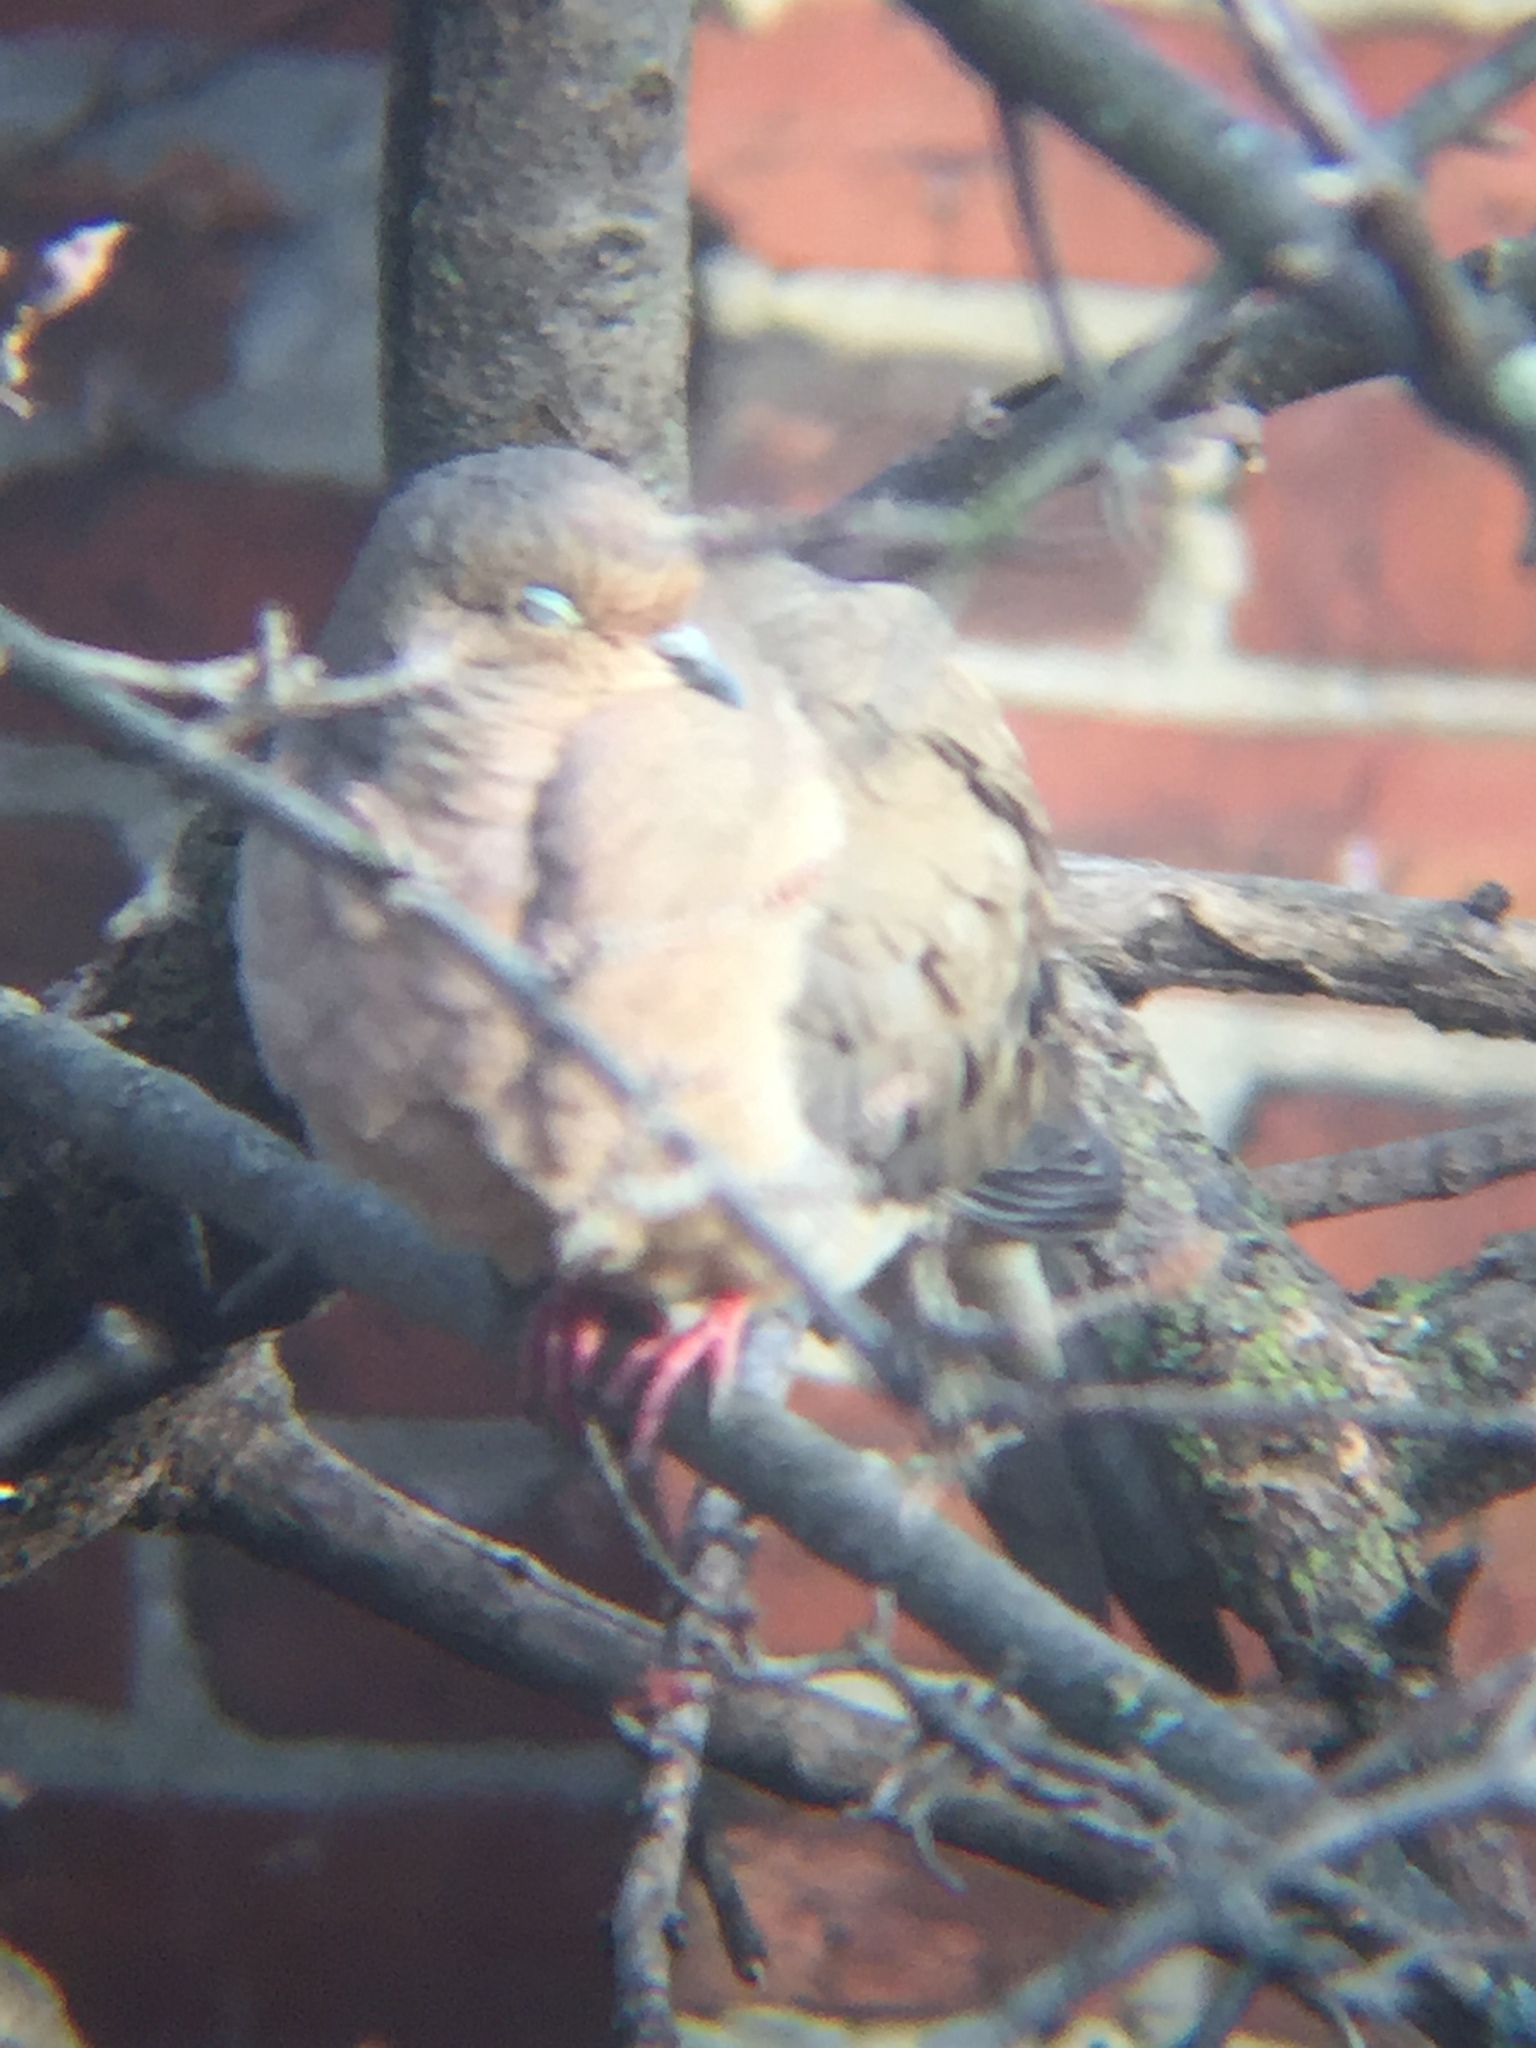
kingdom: Animalia
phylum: Chordata
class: Aves
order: Columbiformes
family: Columbidae
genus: Zenaida
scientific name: Zenaida macroura
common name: Mourning dove
